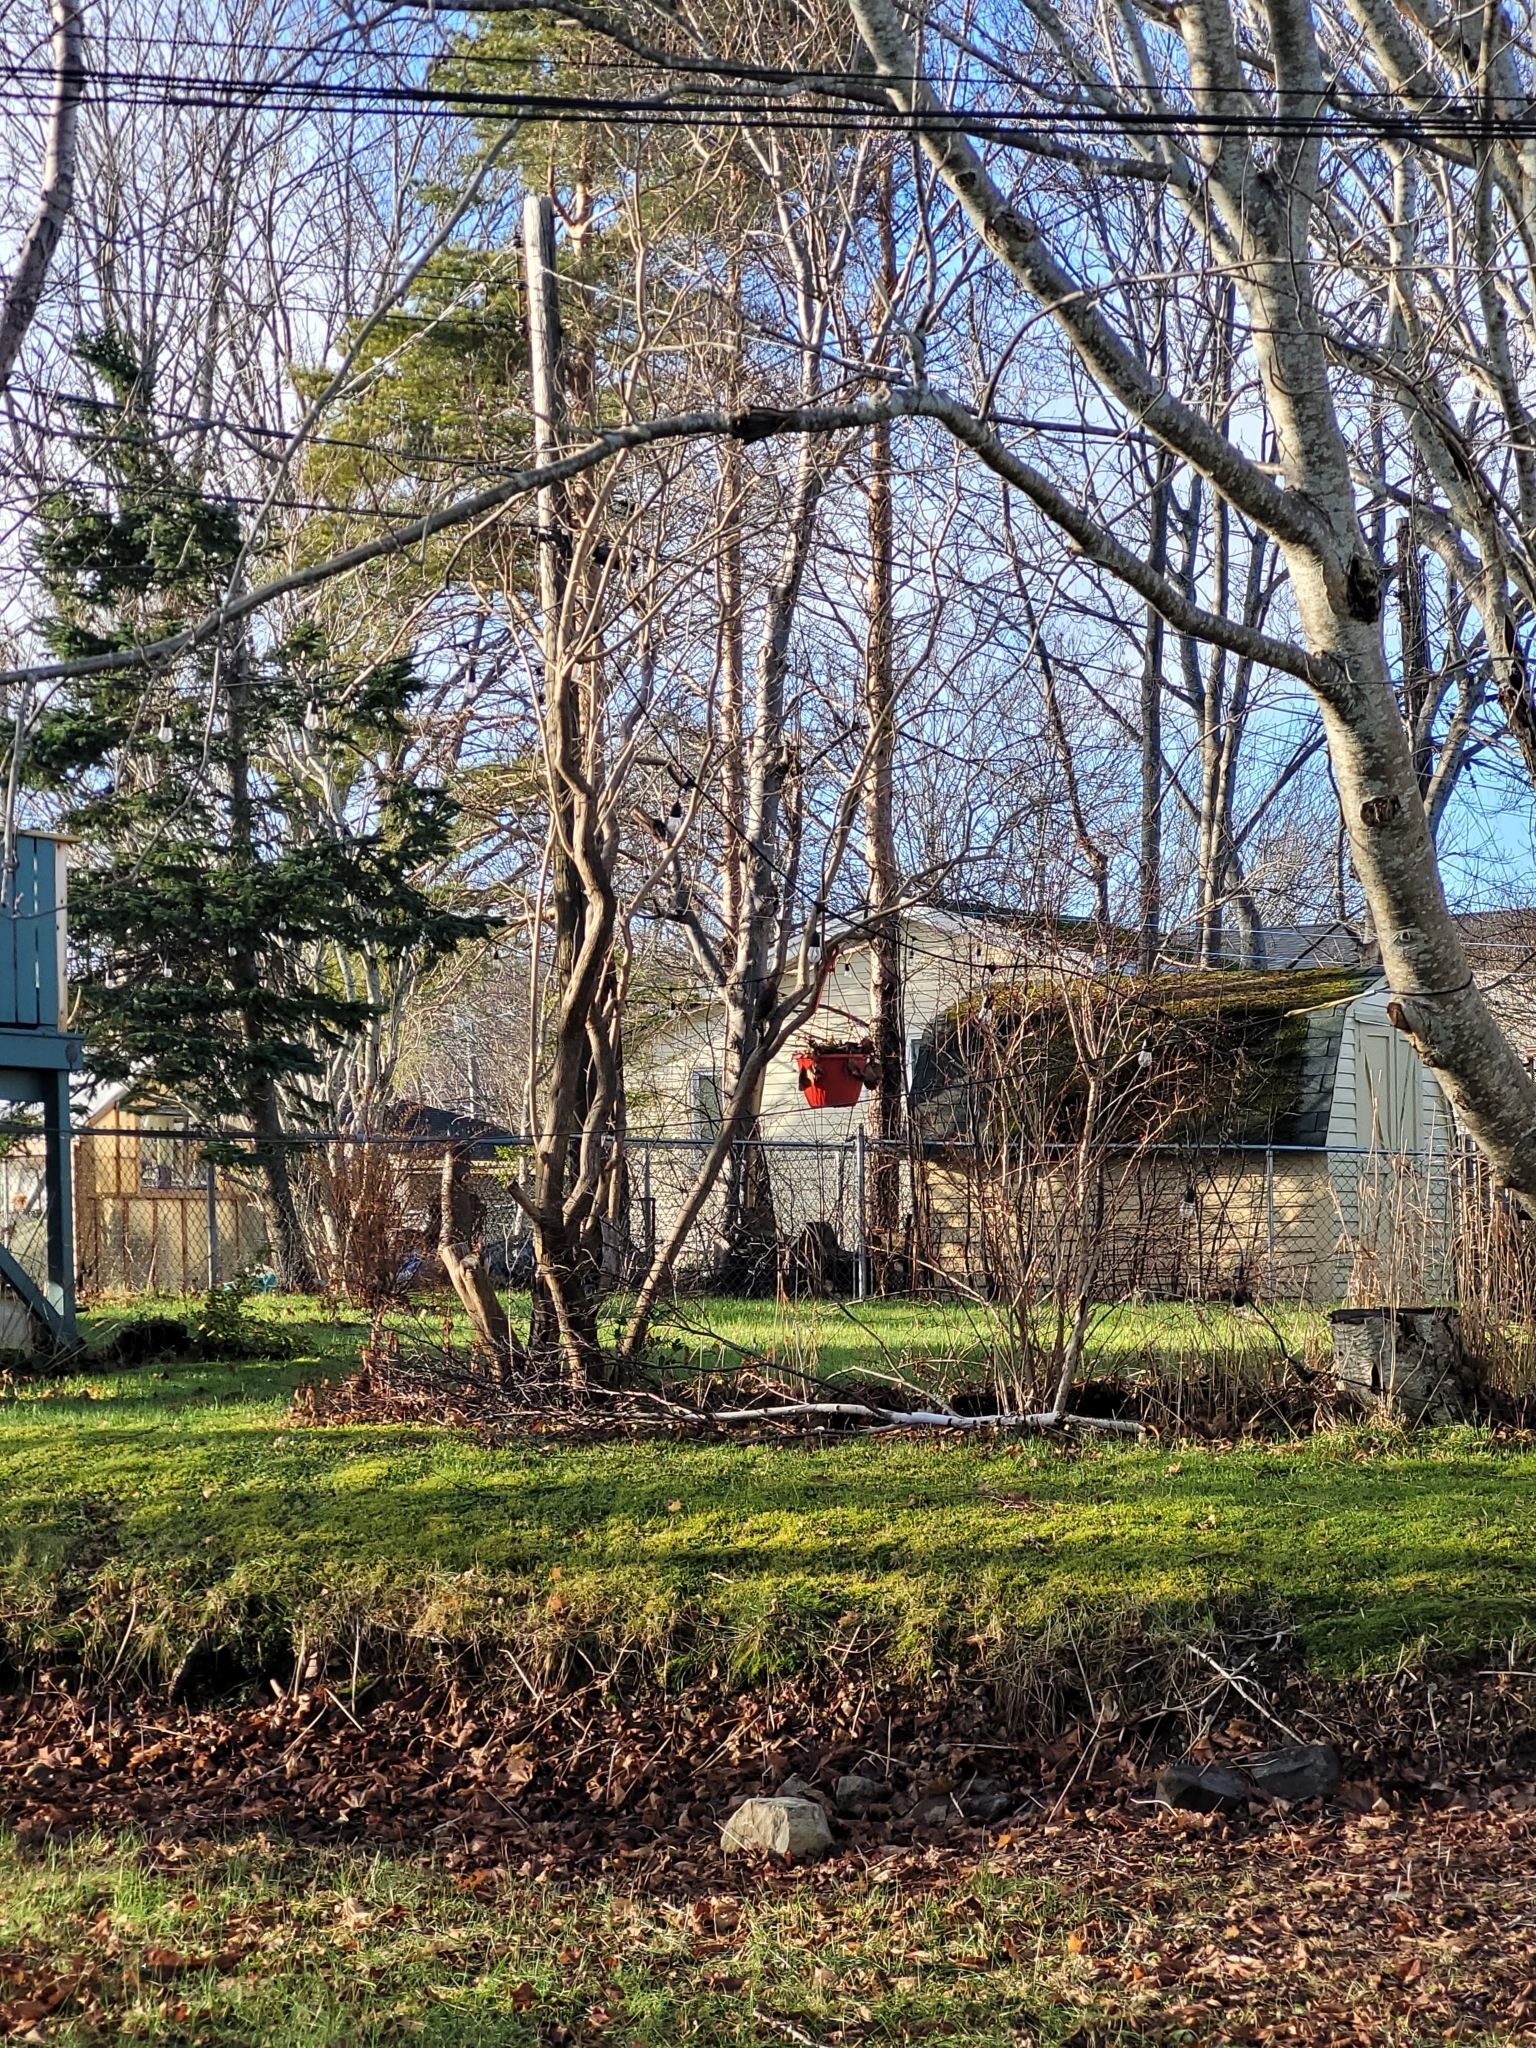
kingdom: Animalia
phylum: Chordata
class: Aves
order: Piciformes
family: Picidae
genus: Colaptes
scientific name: Colaptes auratus
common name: Northern flicker
